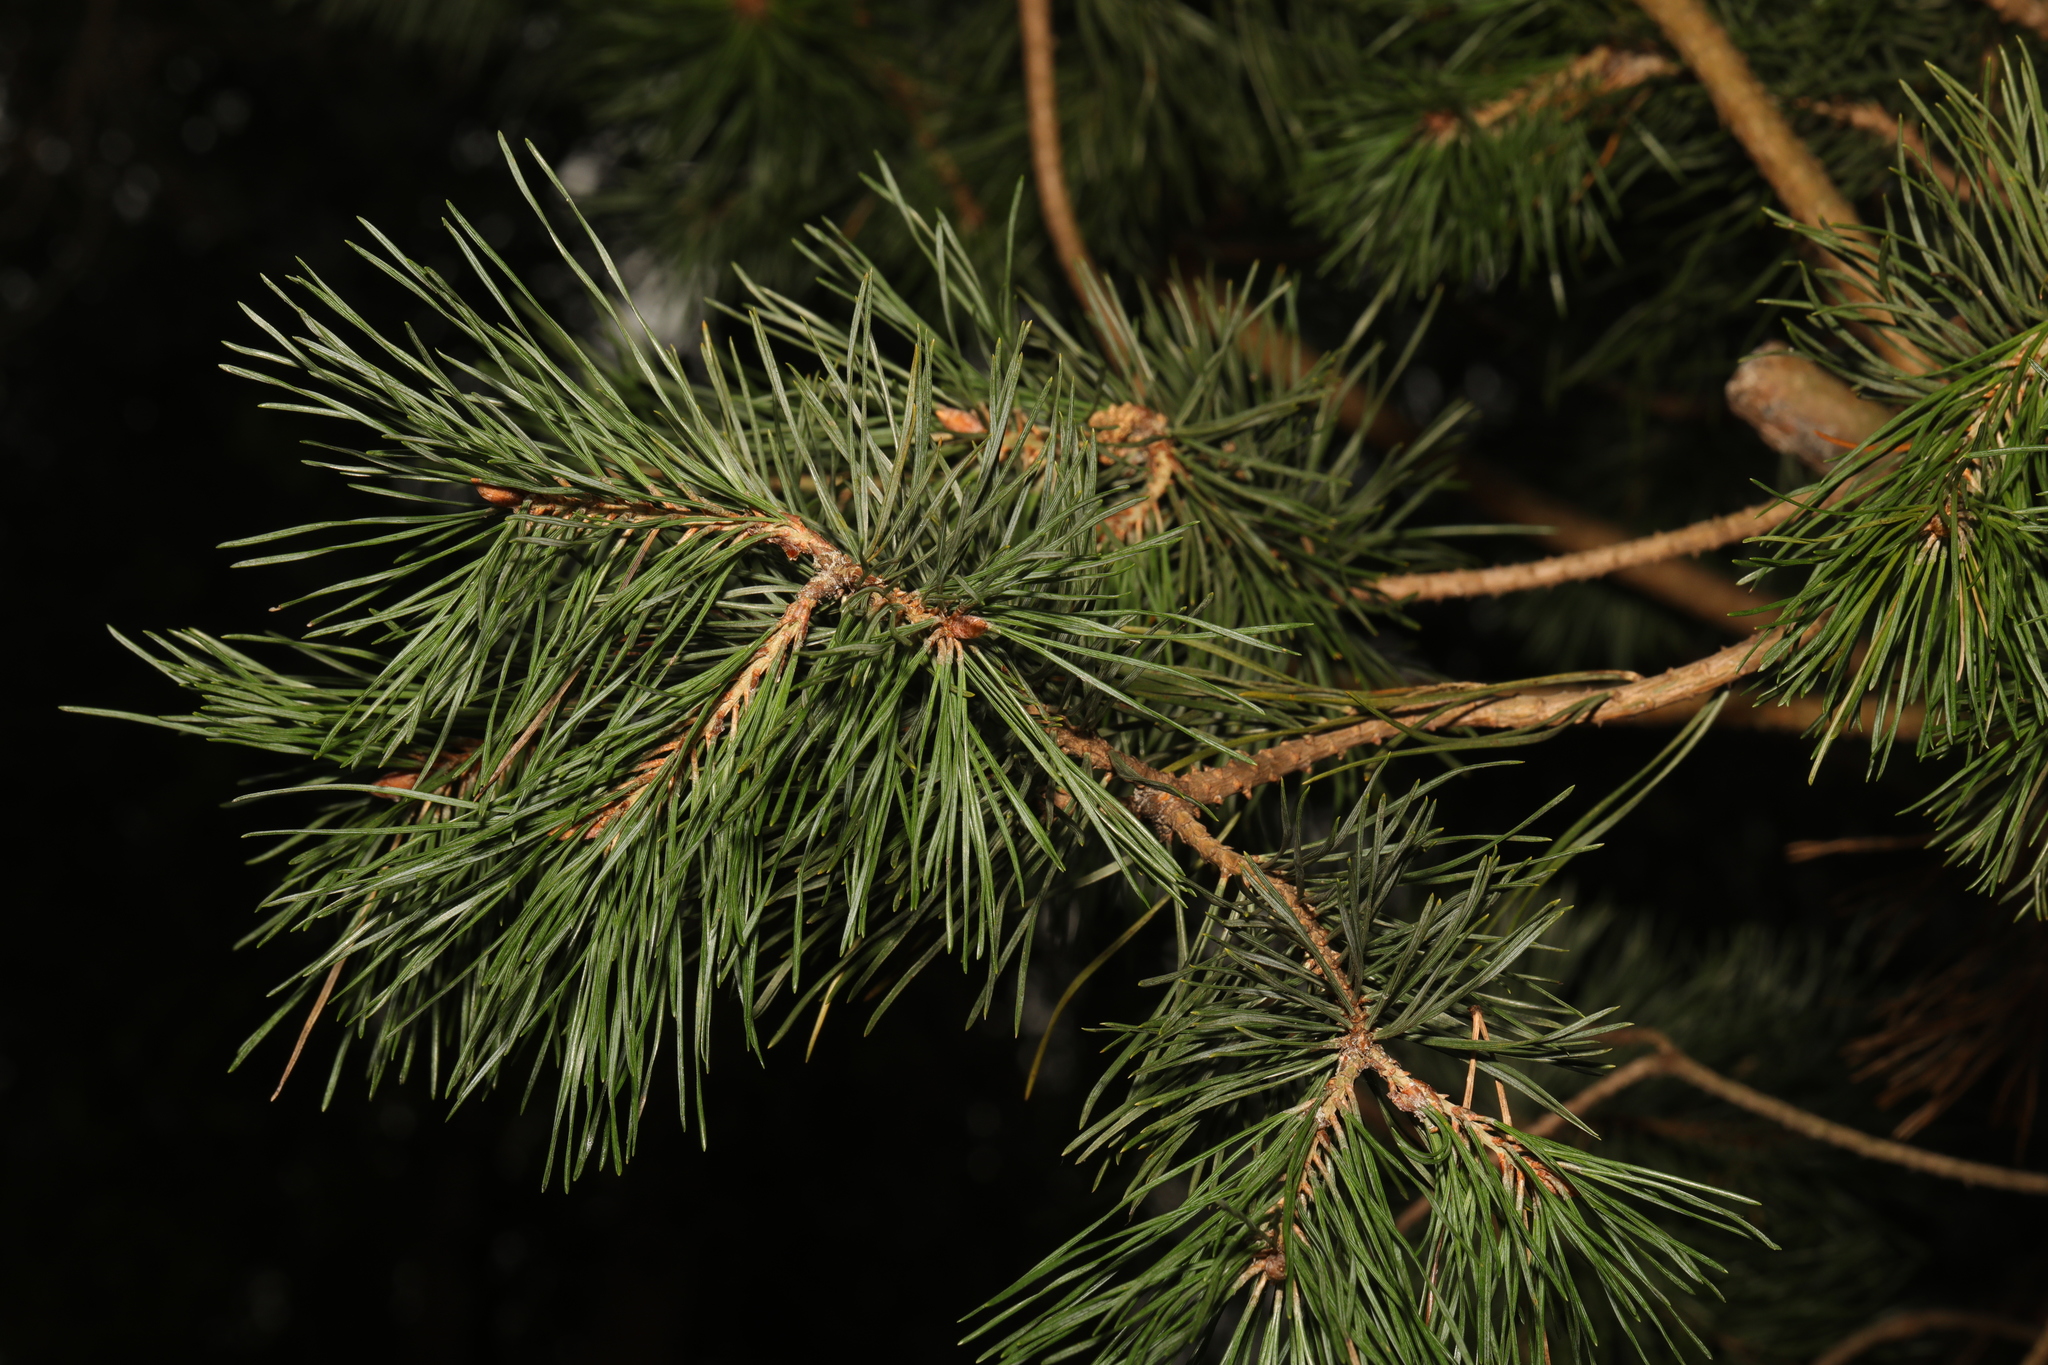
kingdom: Plantae
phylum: Tracheophyta
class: Pinopsida
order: Pinales
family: Pinaceae
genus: Pinus
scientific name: Pinus sylvestris
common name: Scots pine
